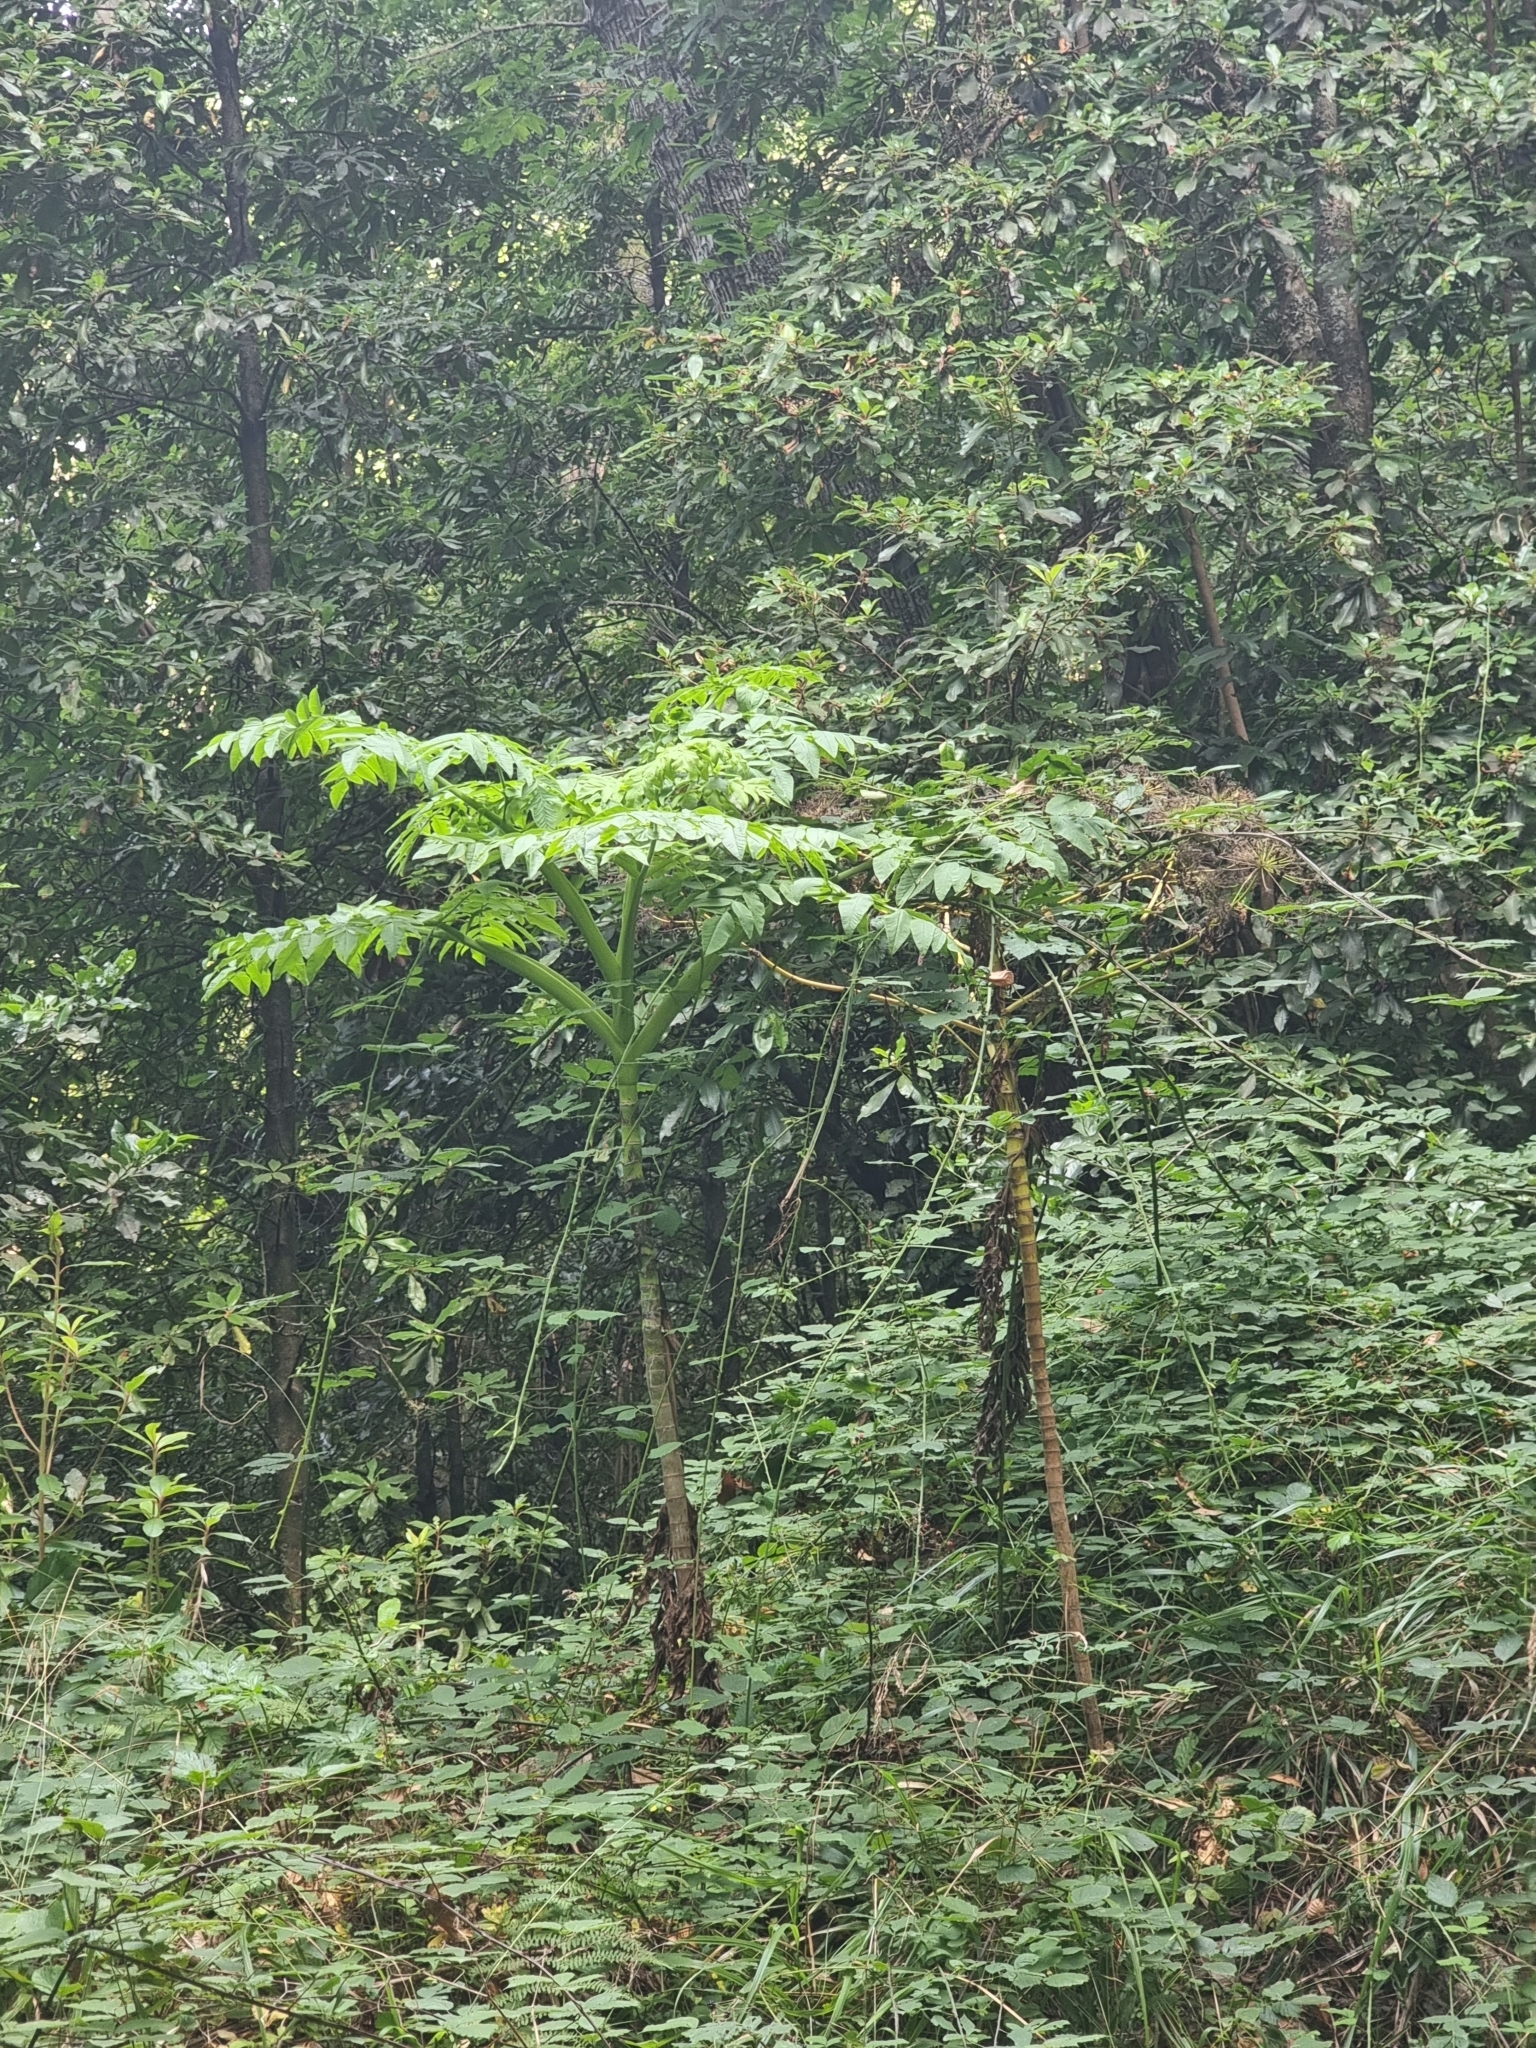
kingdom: Plantae
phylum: Tracheophyta
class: Magnoliopsida
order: Apiales
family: Apiaceae
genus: Daucus
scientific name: Daucus decipiens
